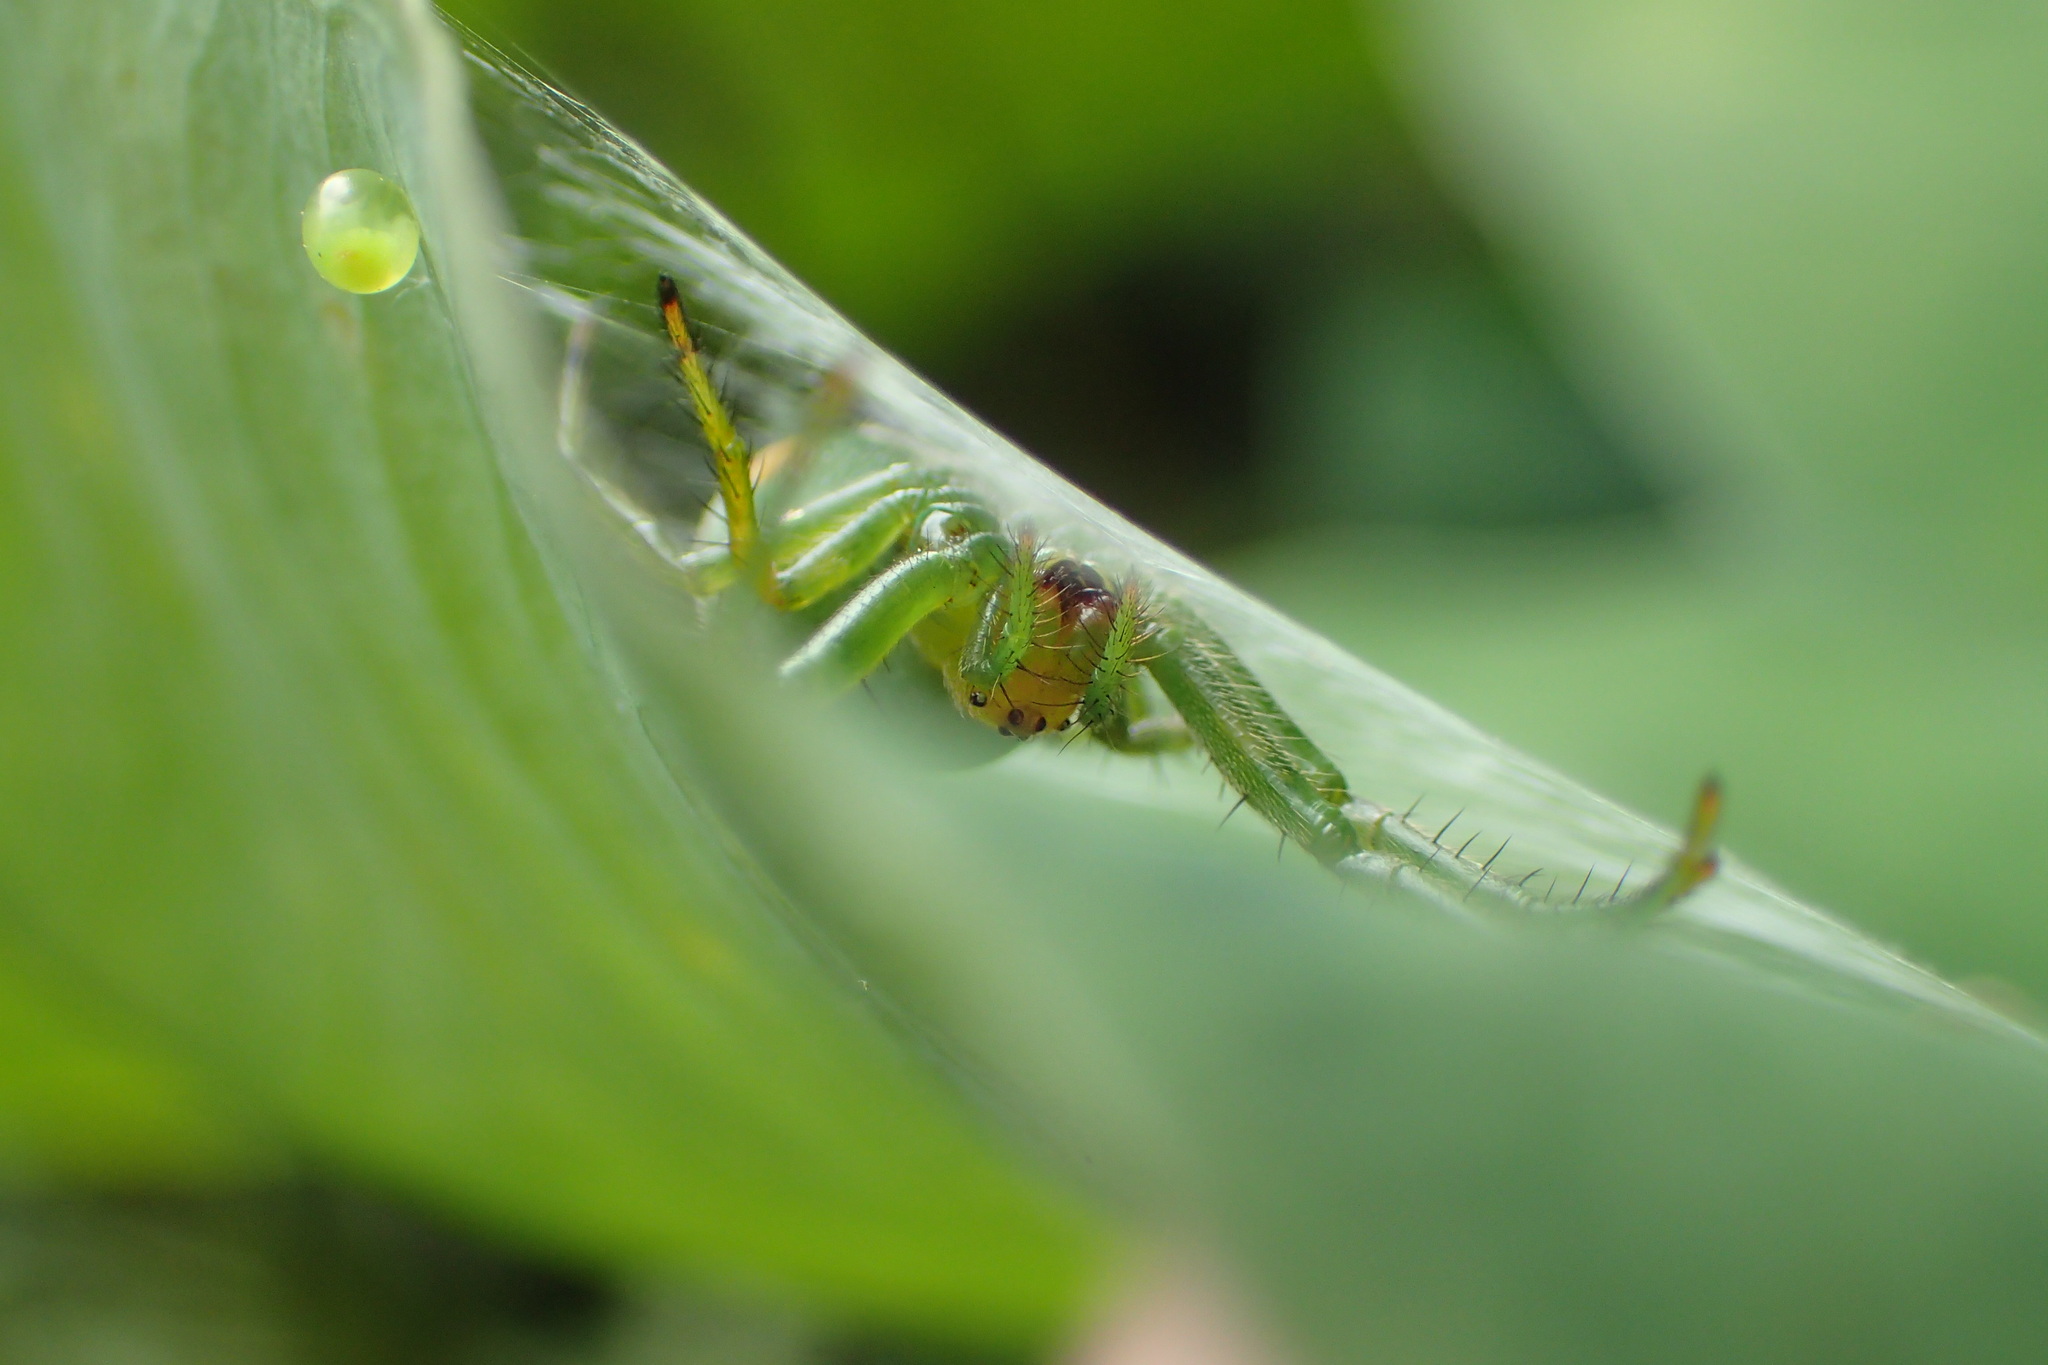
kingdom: Animalia
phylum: Arthropoda
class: Arachnida
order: Araneae
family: Araneidae
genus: Aoaraneus
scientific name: Aoaraneus pentagrammicus
